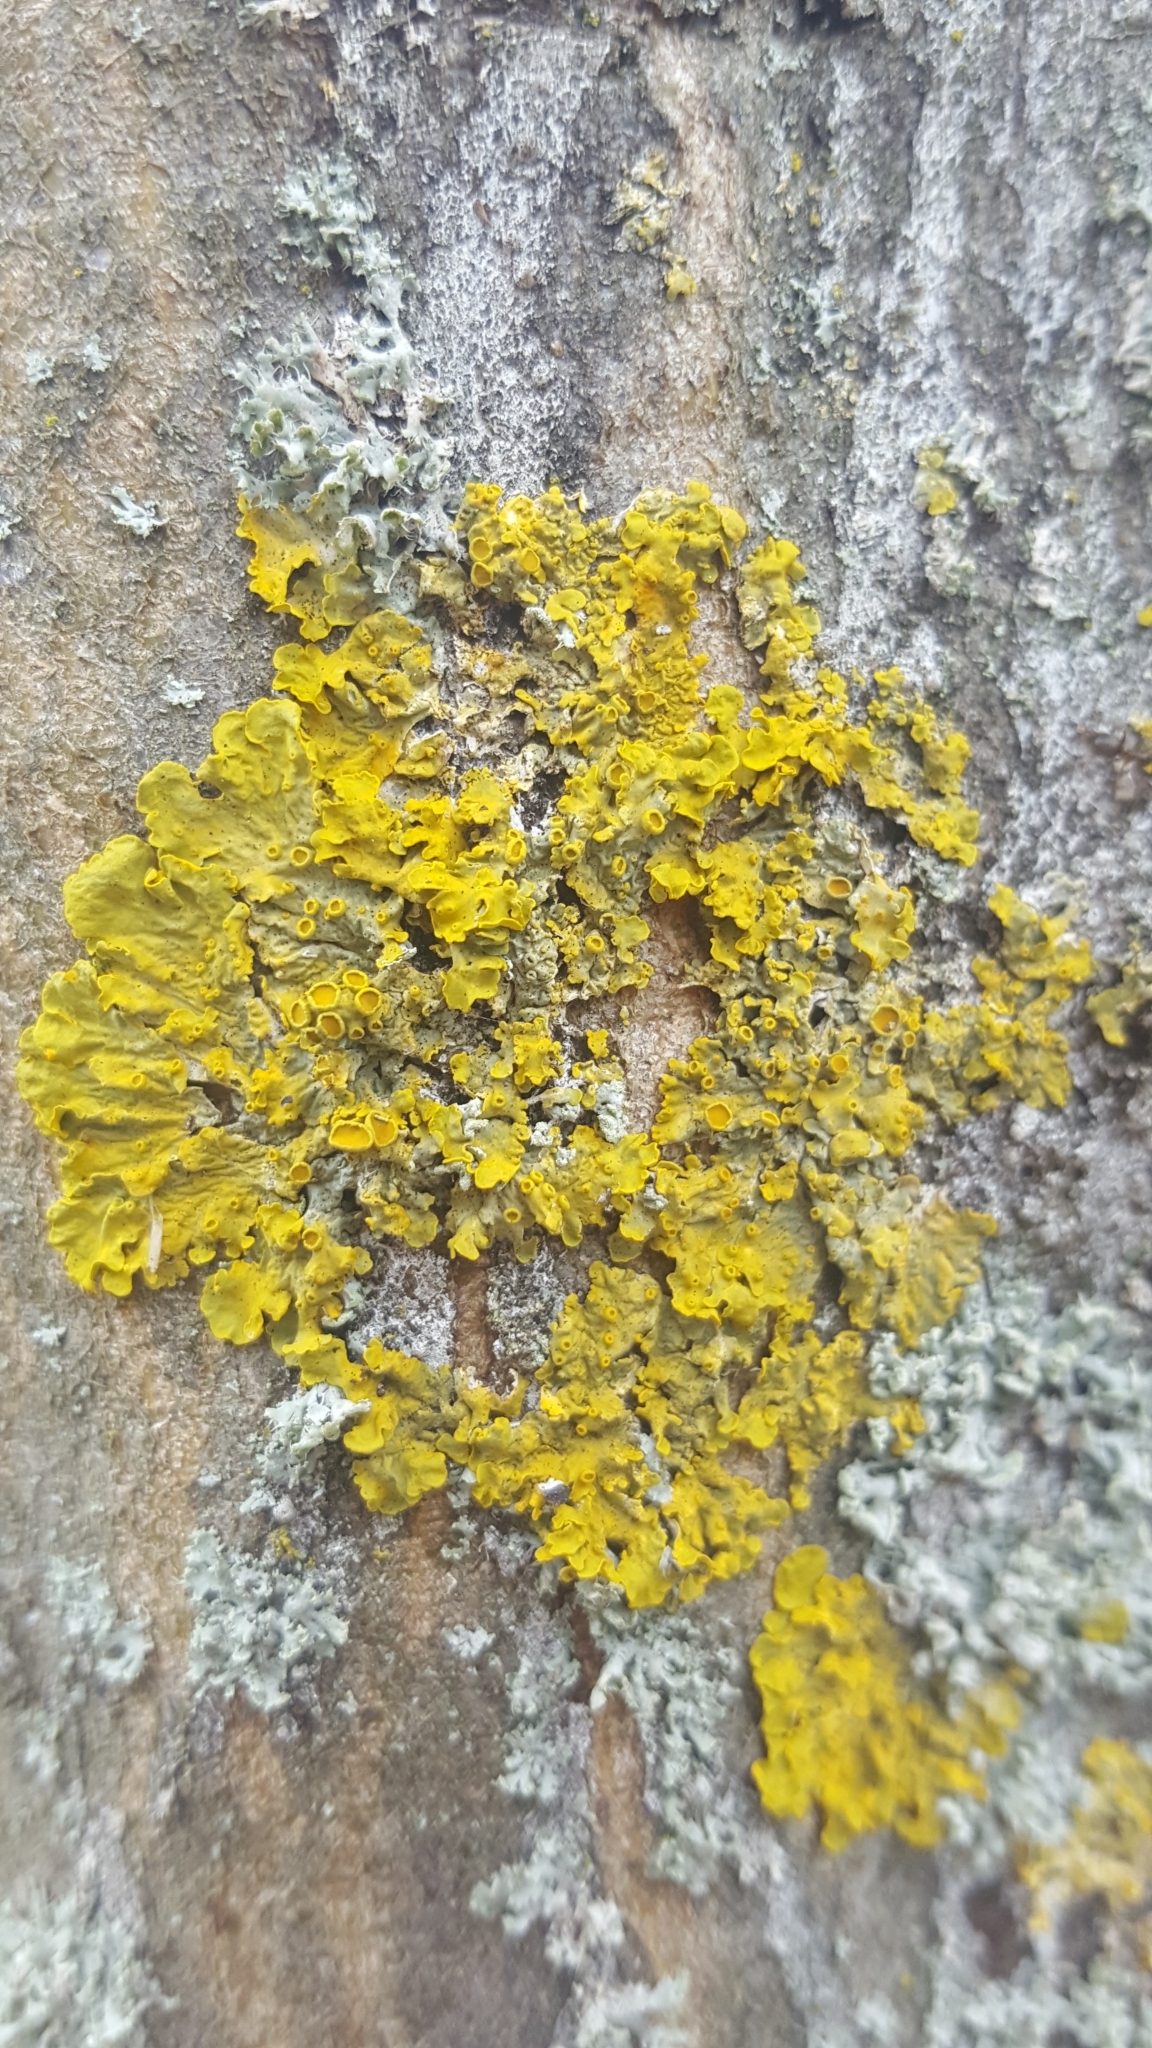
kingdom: Fungi
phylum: Ascomycota
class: Lecanoromycetes
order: Teloschistales
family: Teloschistaceae
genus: Xanthoria
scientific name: Xanthoria parietina
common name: Common orange lichen
